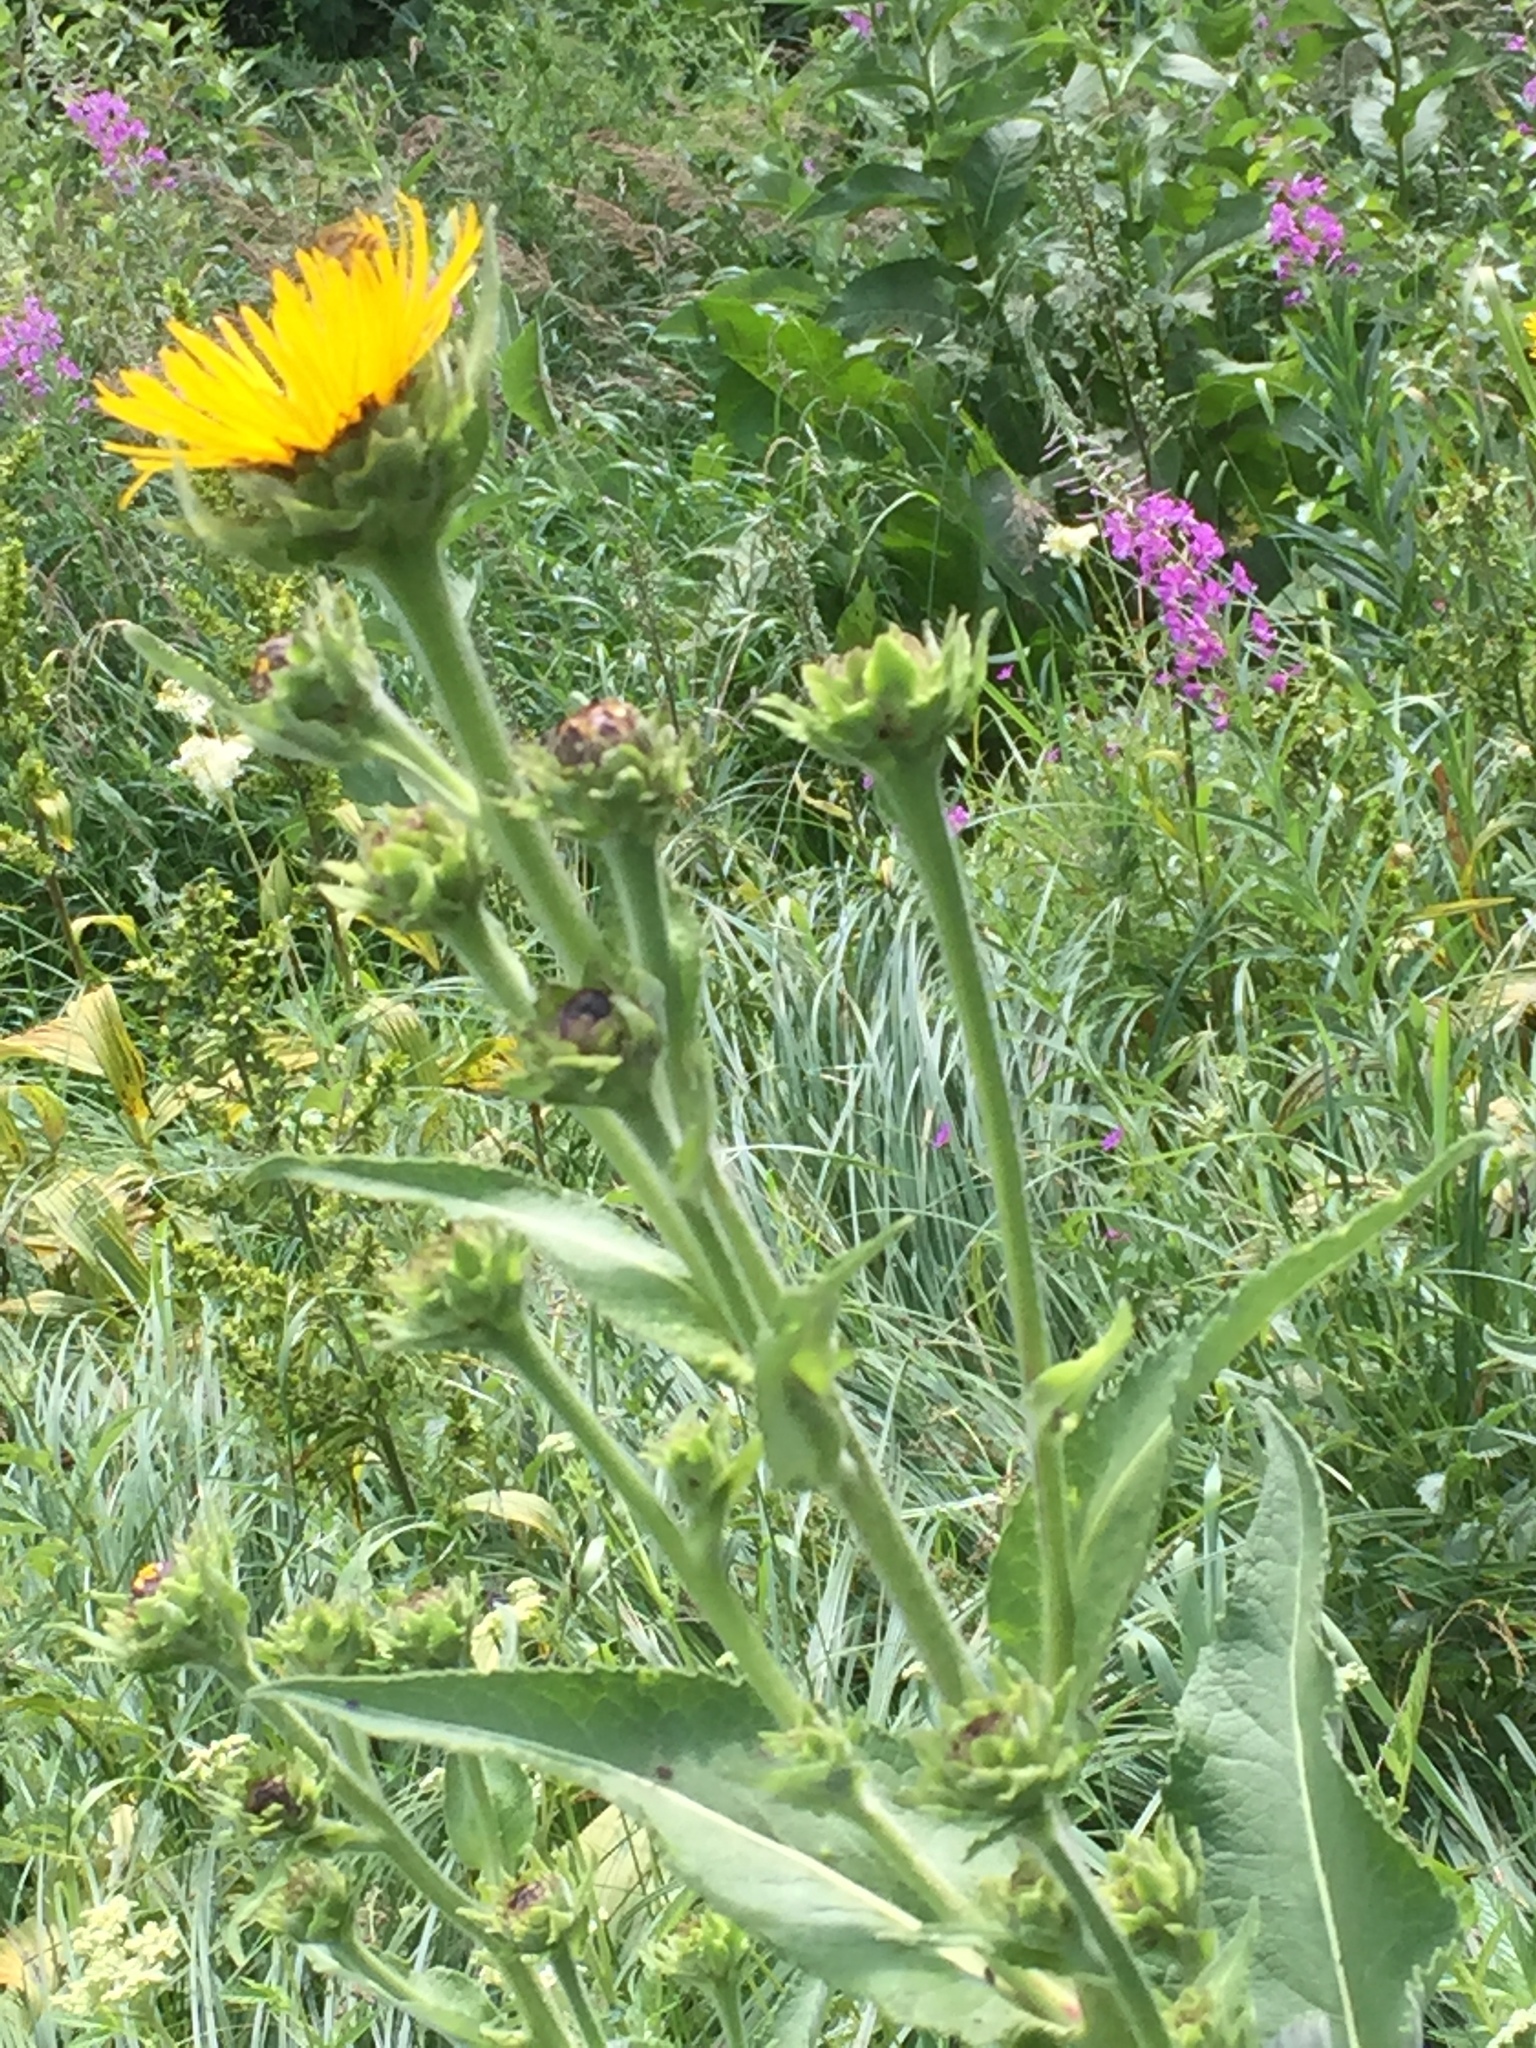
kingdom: Plantae
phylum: Tracheophyta
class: Magnoliopsida
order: Asterales
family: Asteraceae
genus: Inula
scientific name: Inula helenium
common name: Elecampane
